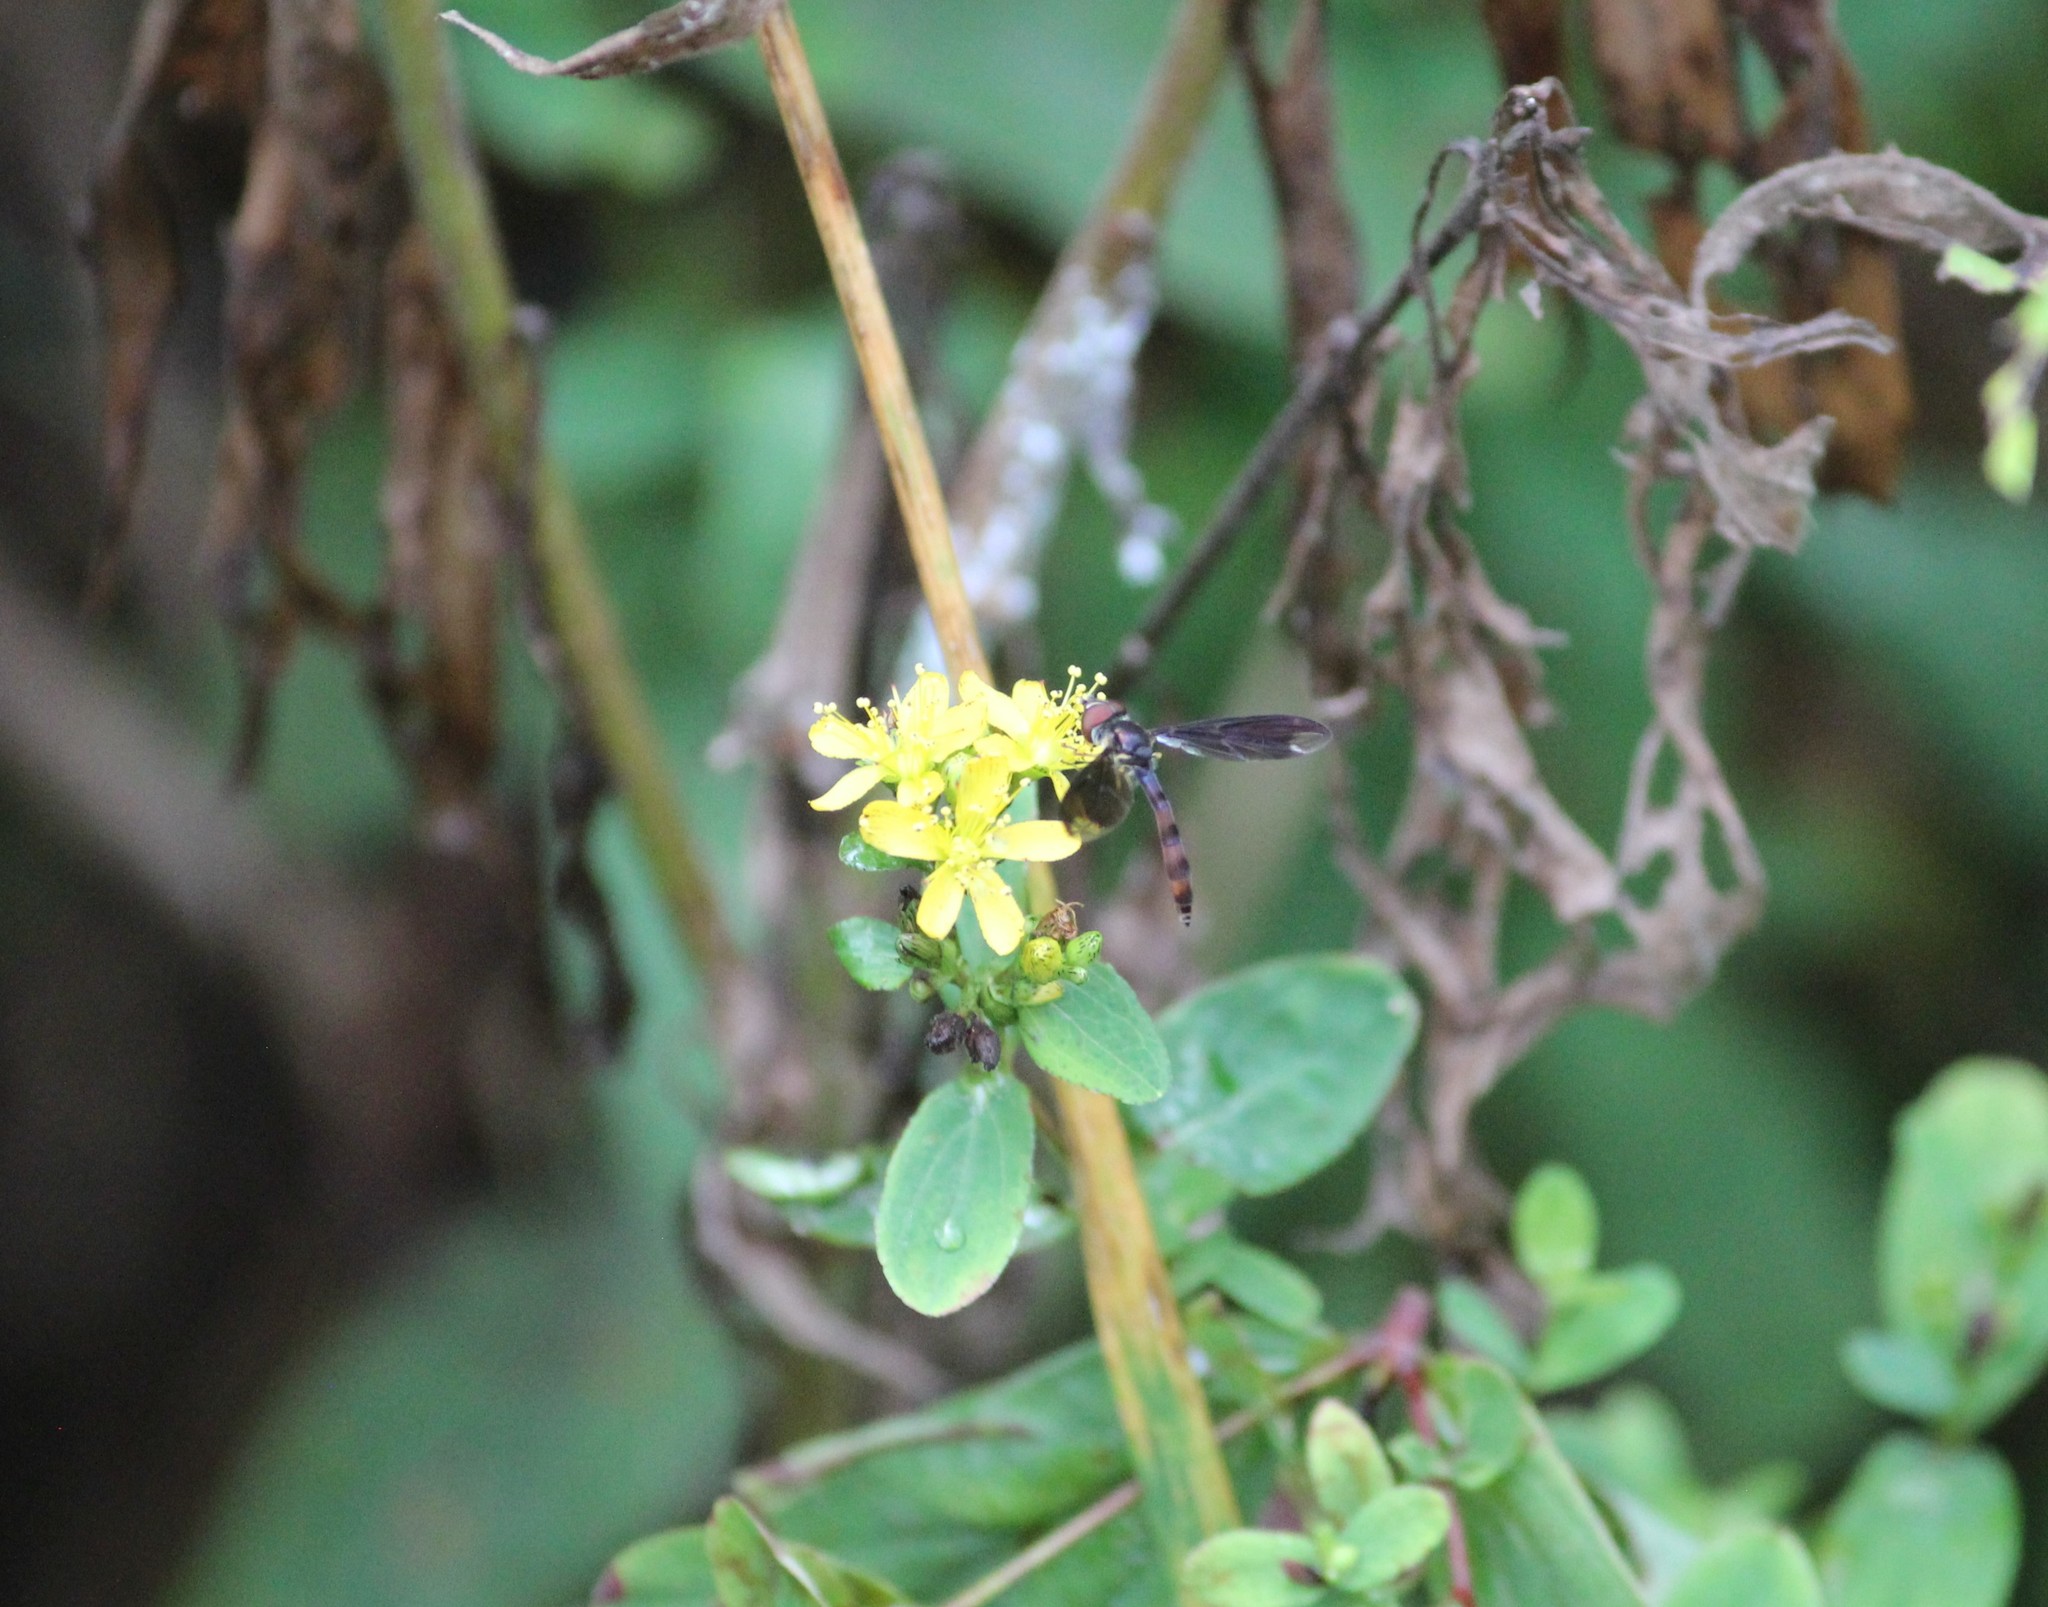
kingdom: Animalia
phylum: Arthropoda
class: Insecta
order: Diptera
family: Syrphidae
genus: Ocyptamus
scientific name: Ocyptamus fuscipennis
